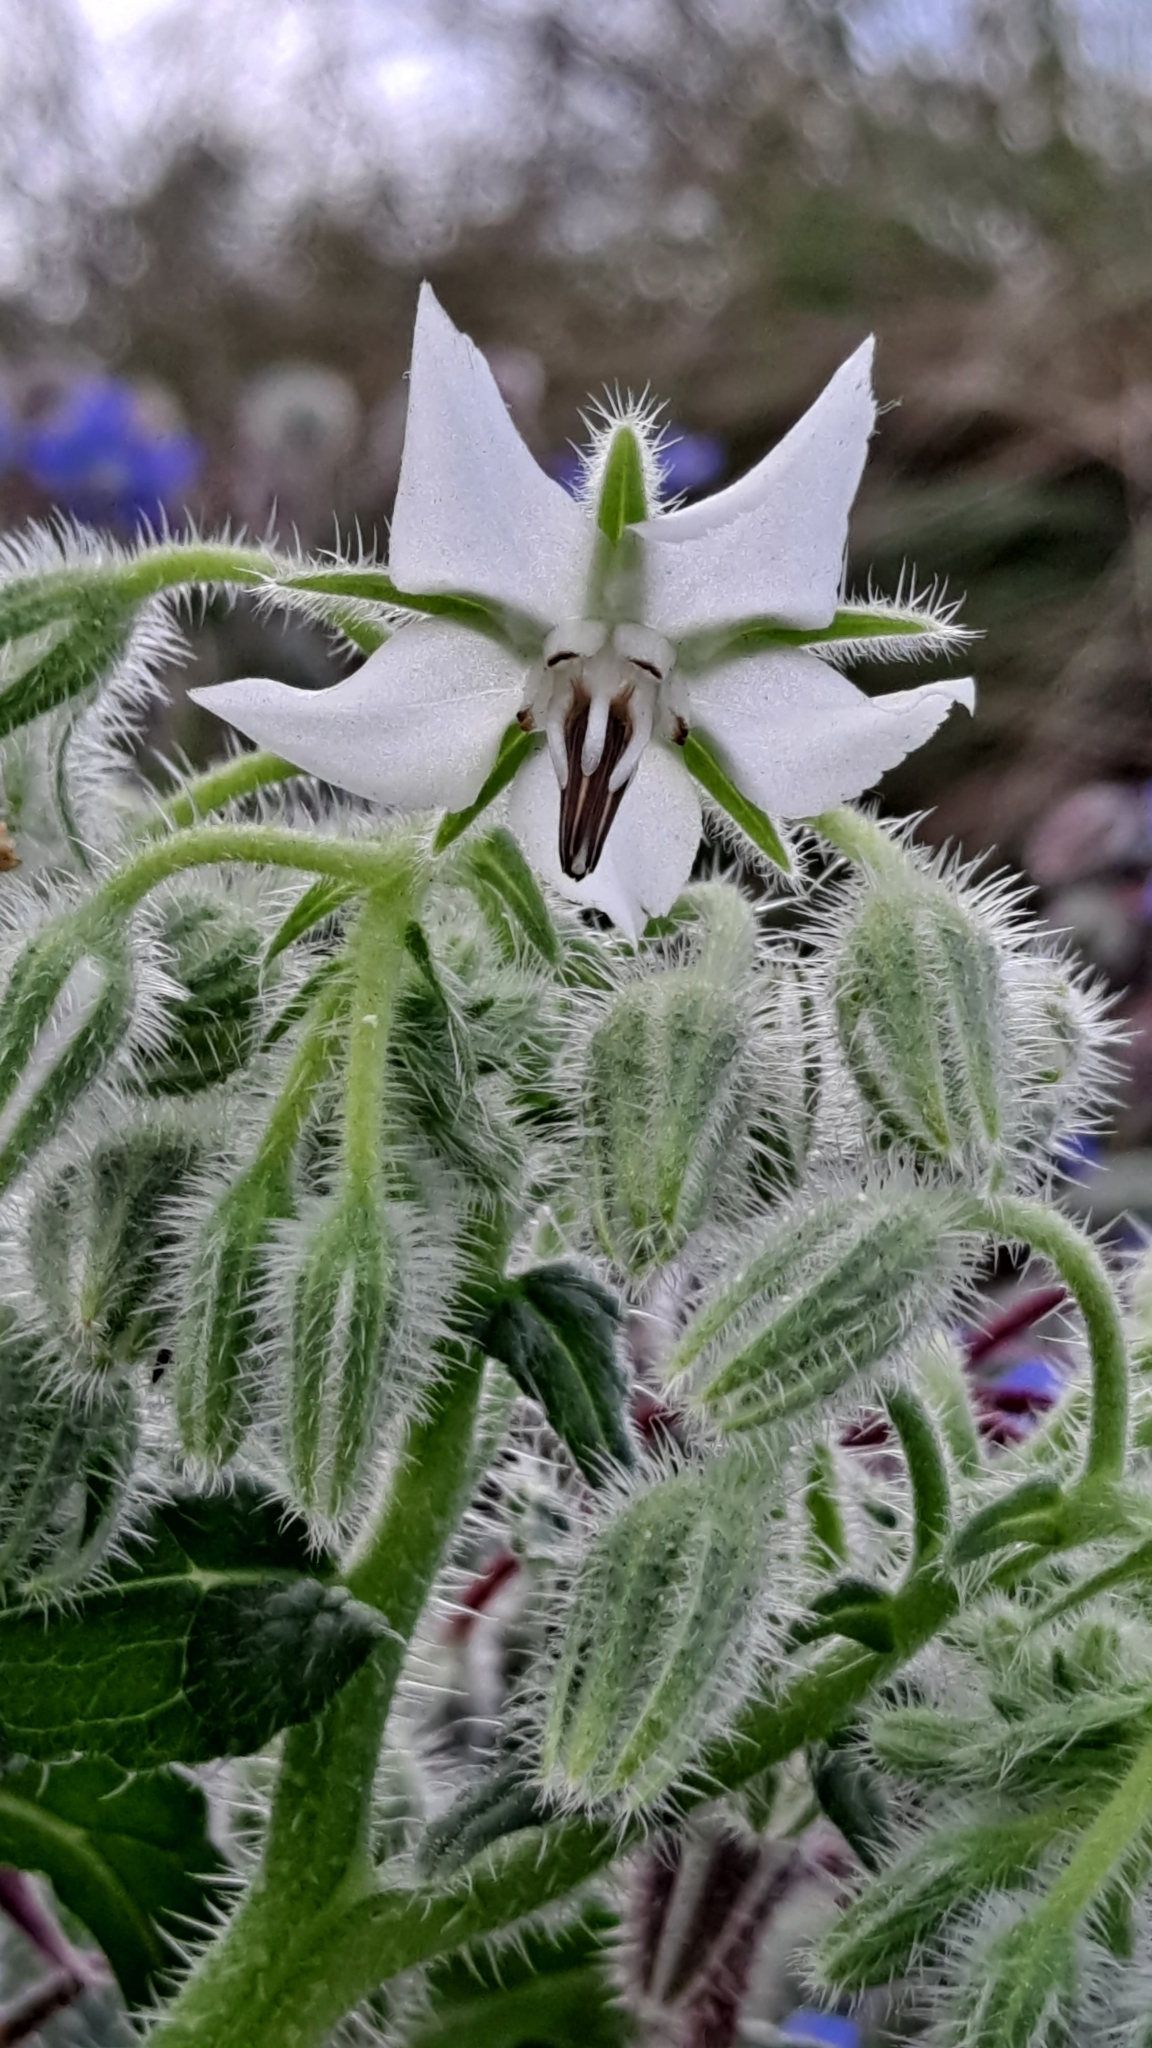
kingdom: Plantae
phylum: Tracheophyta
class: Magnoliopsida
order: Boraginales
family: Boraginaceae
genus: Borago
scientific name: Borago officinalis
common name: Borage
